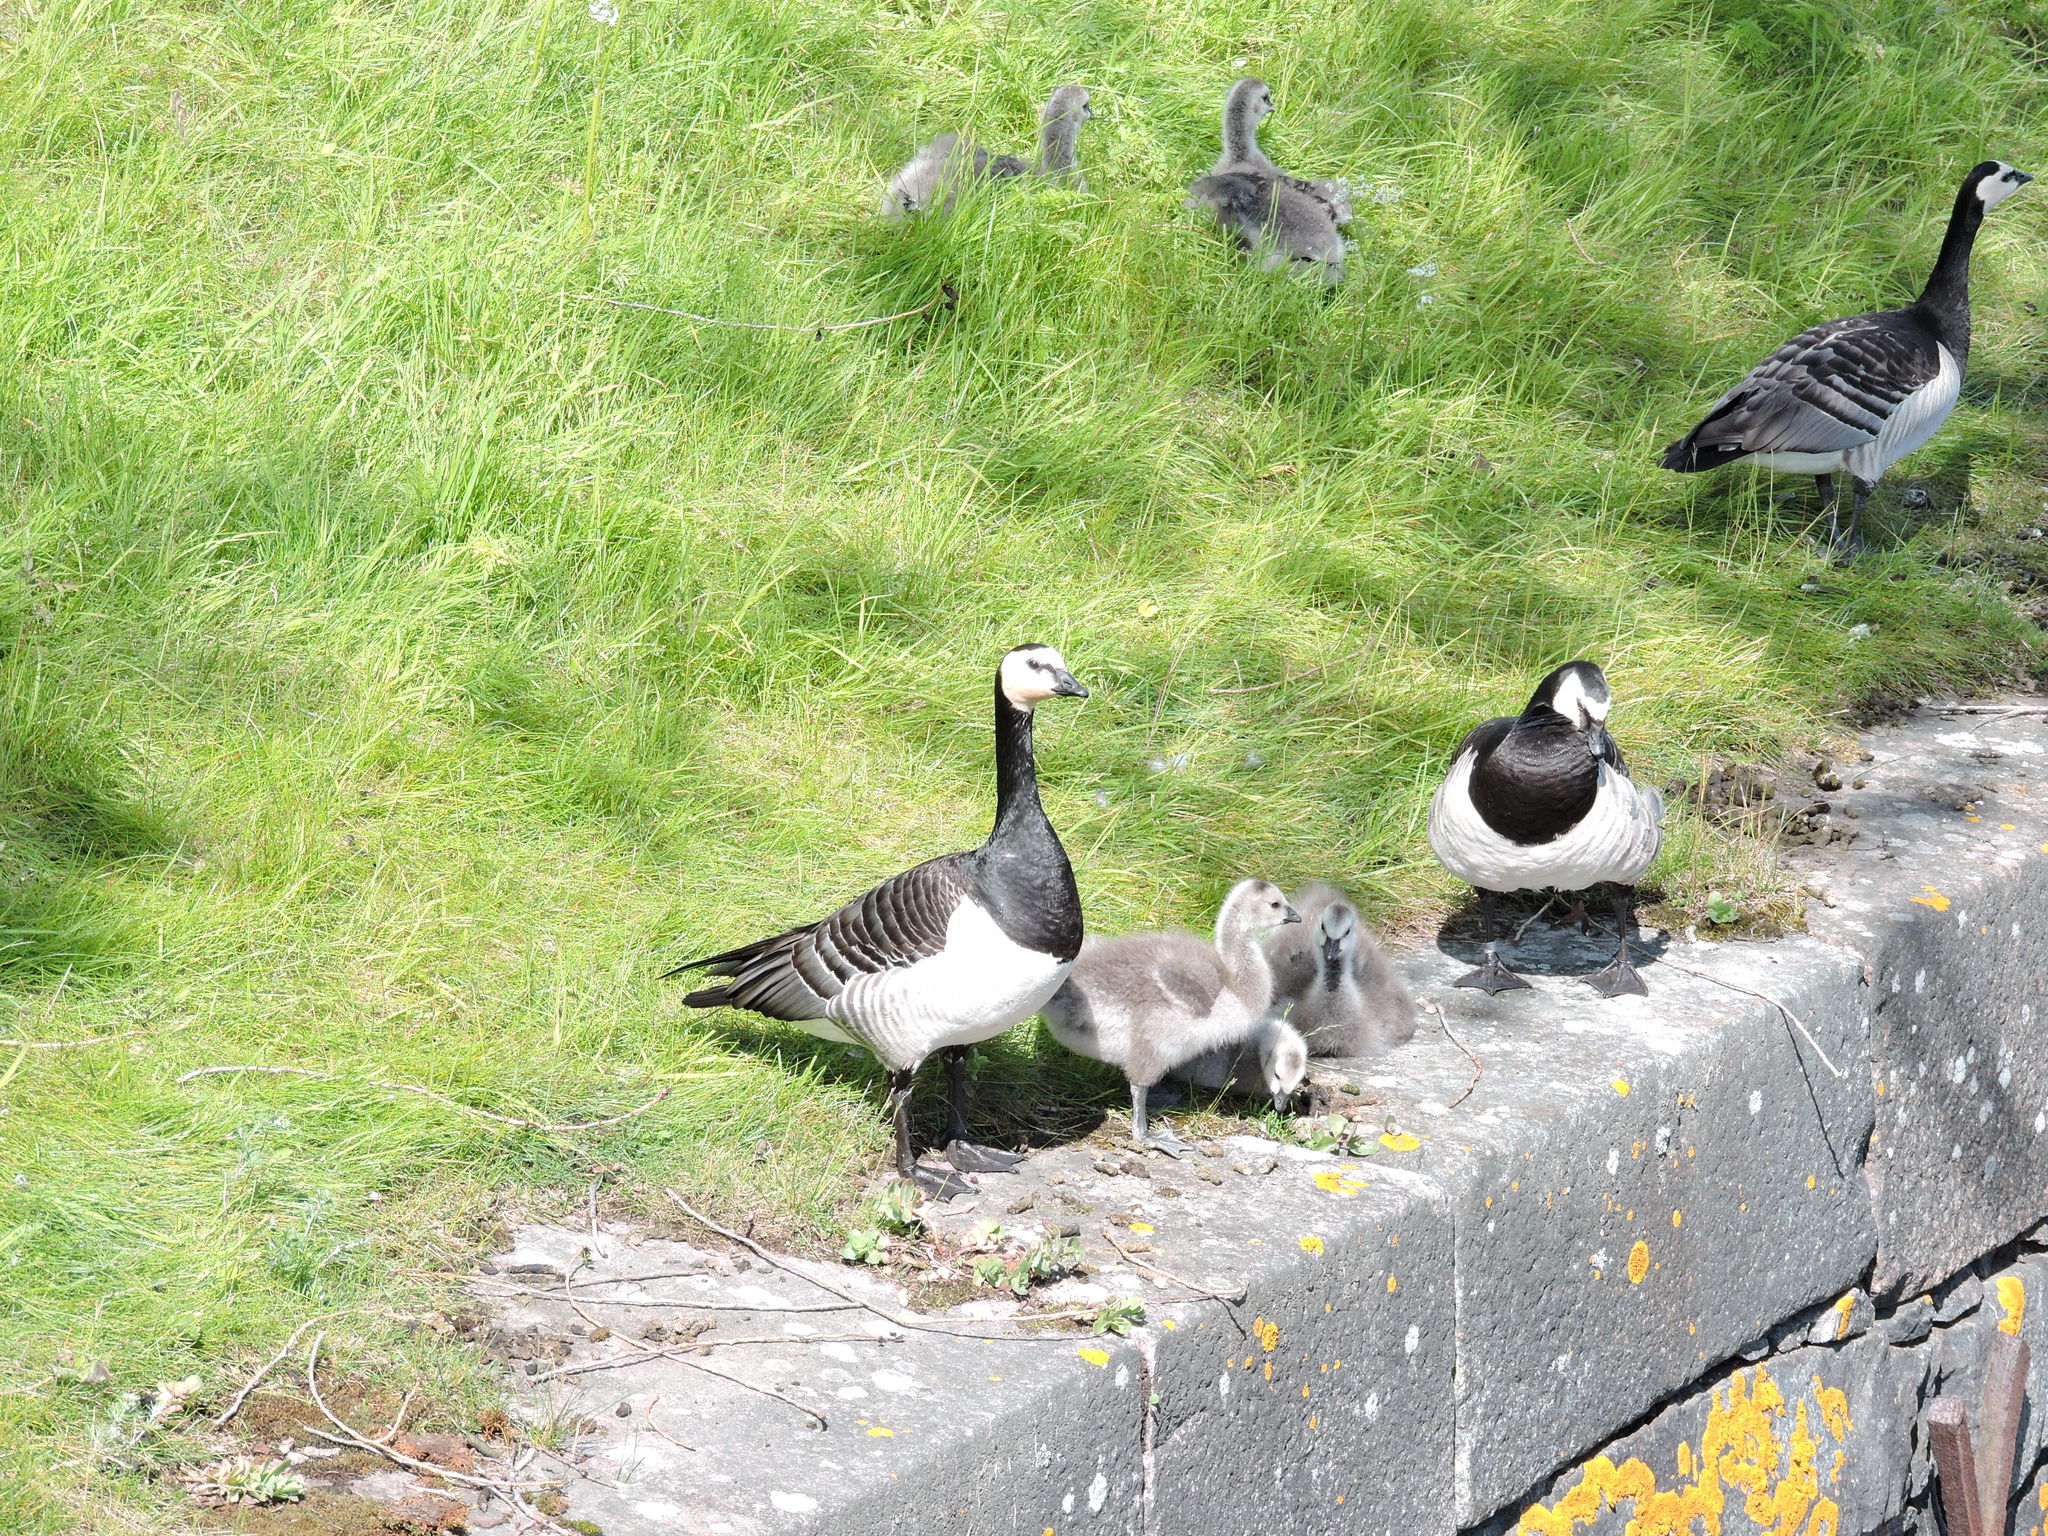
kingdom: Animalia
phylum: Chordata
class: Aves
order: Anseriformes
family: Anatidae
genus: Branta
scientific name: Branta leucopsis
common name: Barnacle goose
